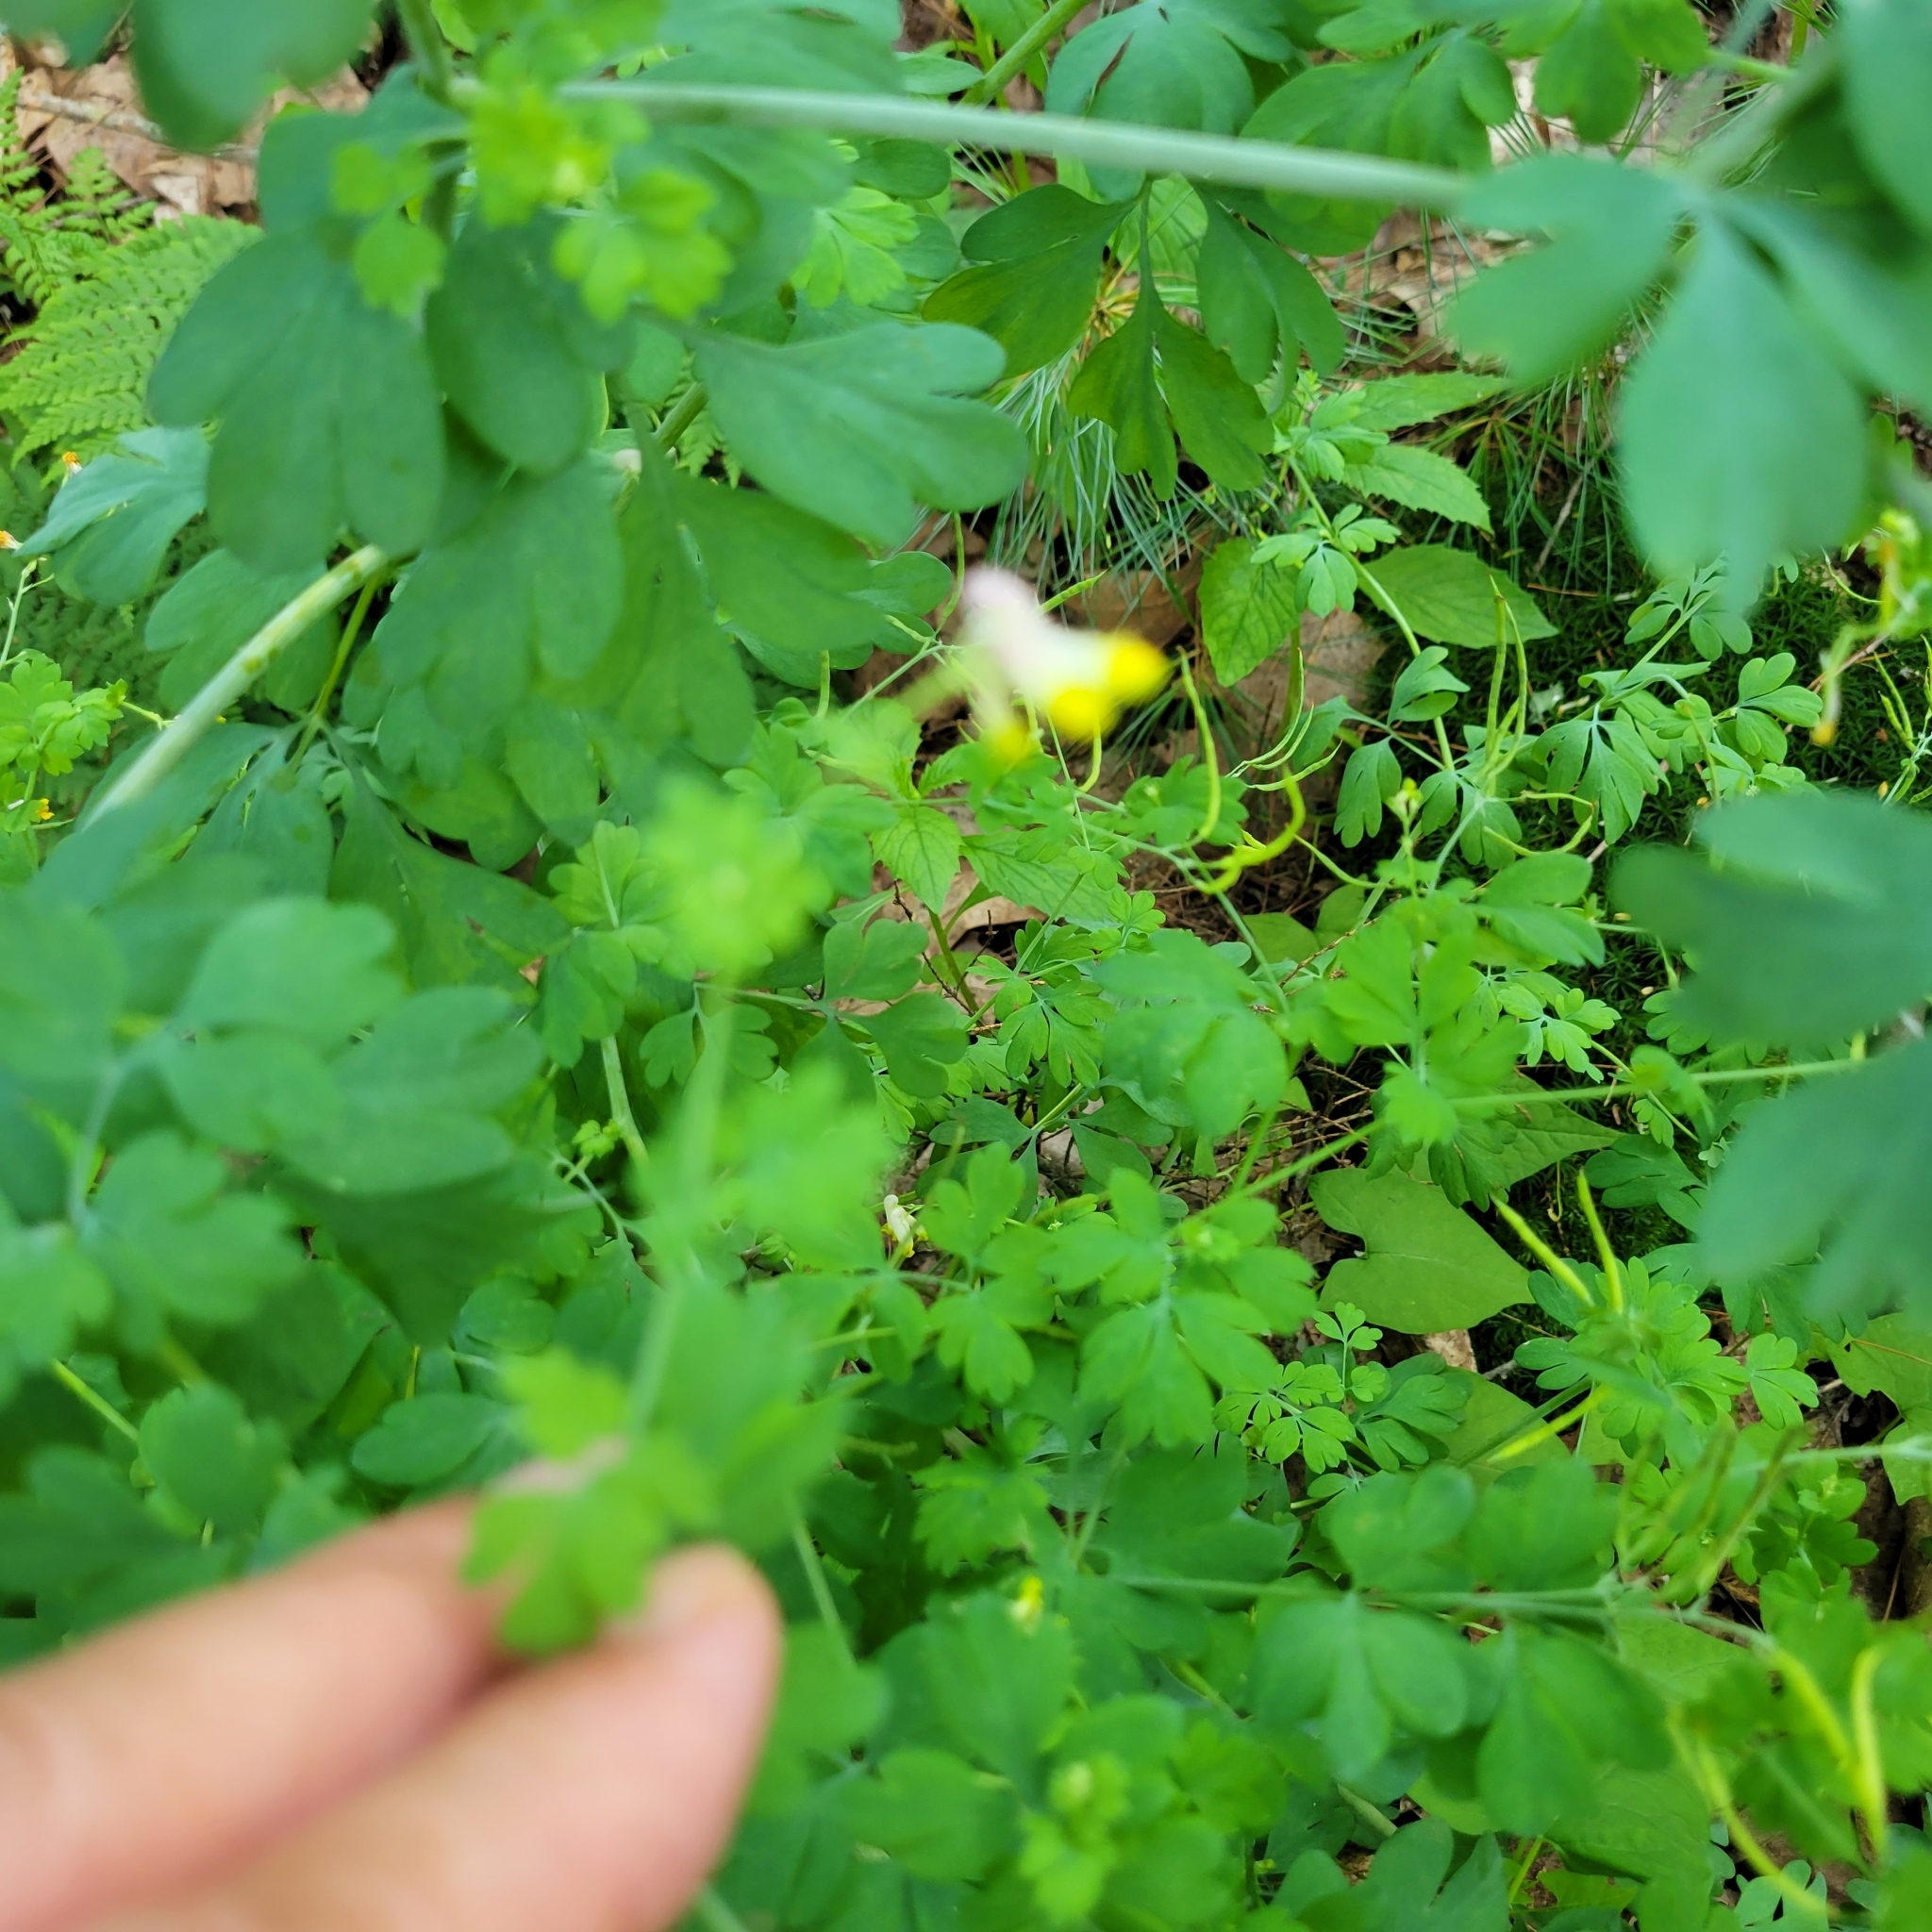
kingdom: Plantae
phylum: Tracheophyta
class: Magnoliopsida
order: Ranunculales
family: Papaveraceae
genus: Capnoides
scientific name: Capnoides sempervirens
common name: Rock harlequin
